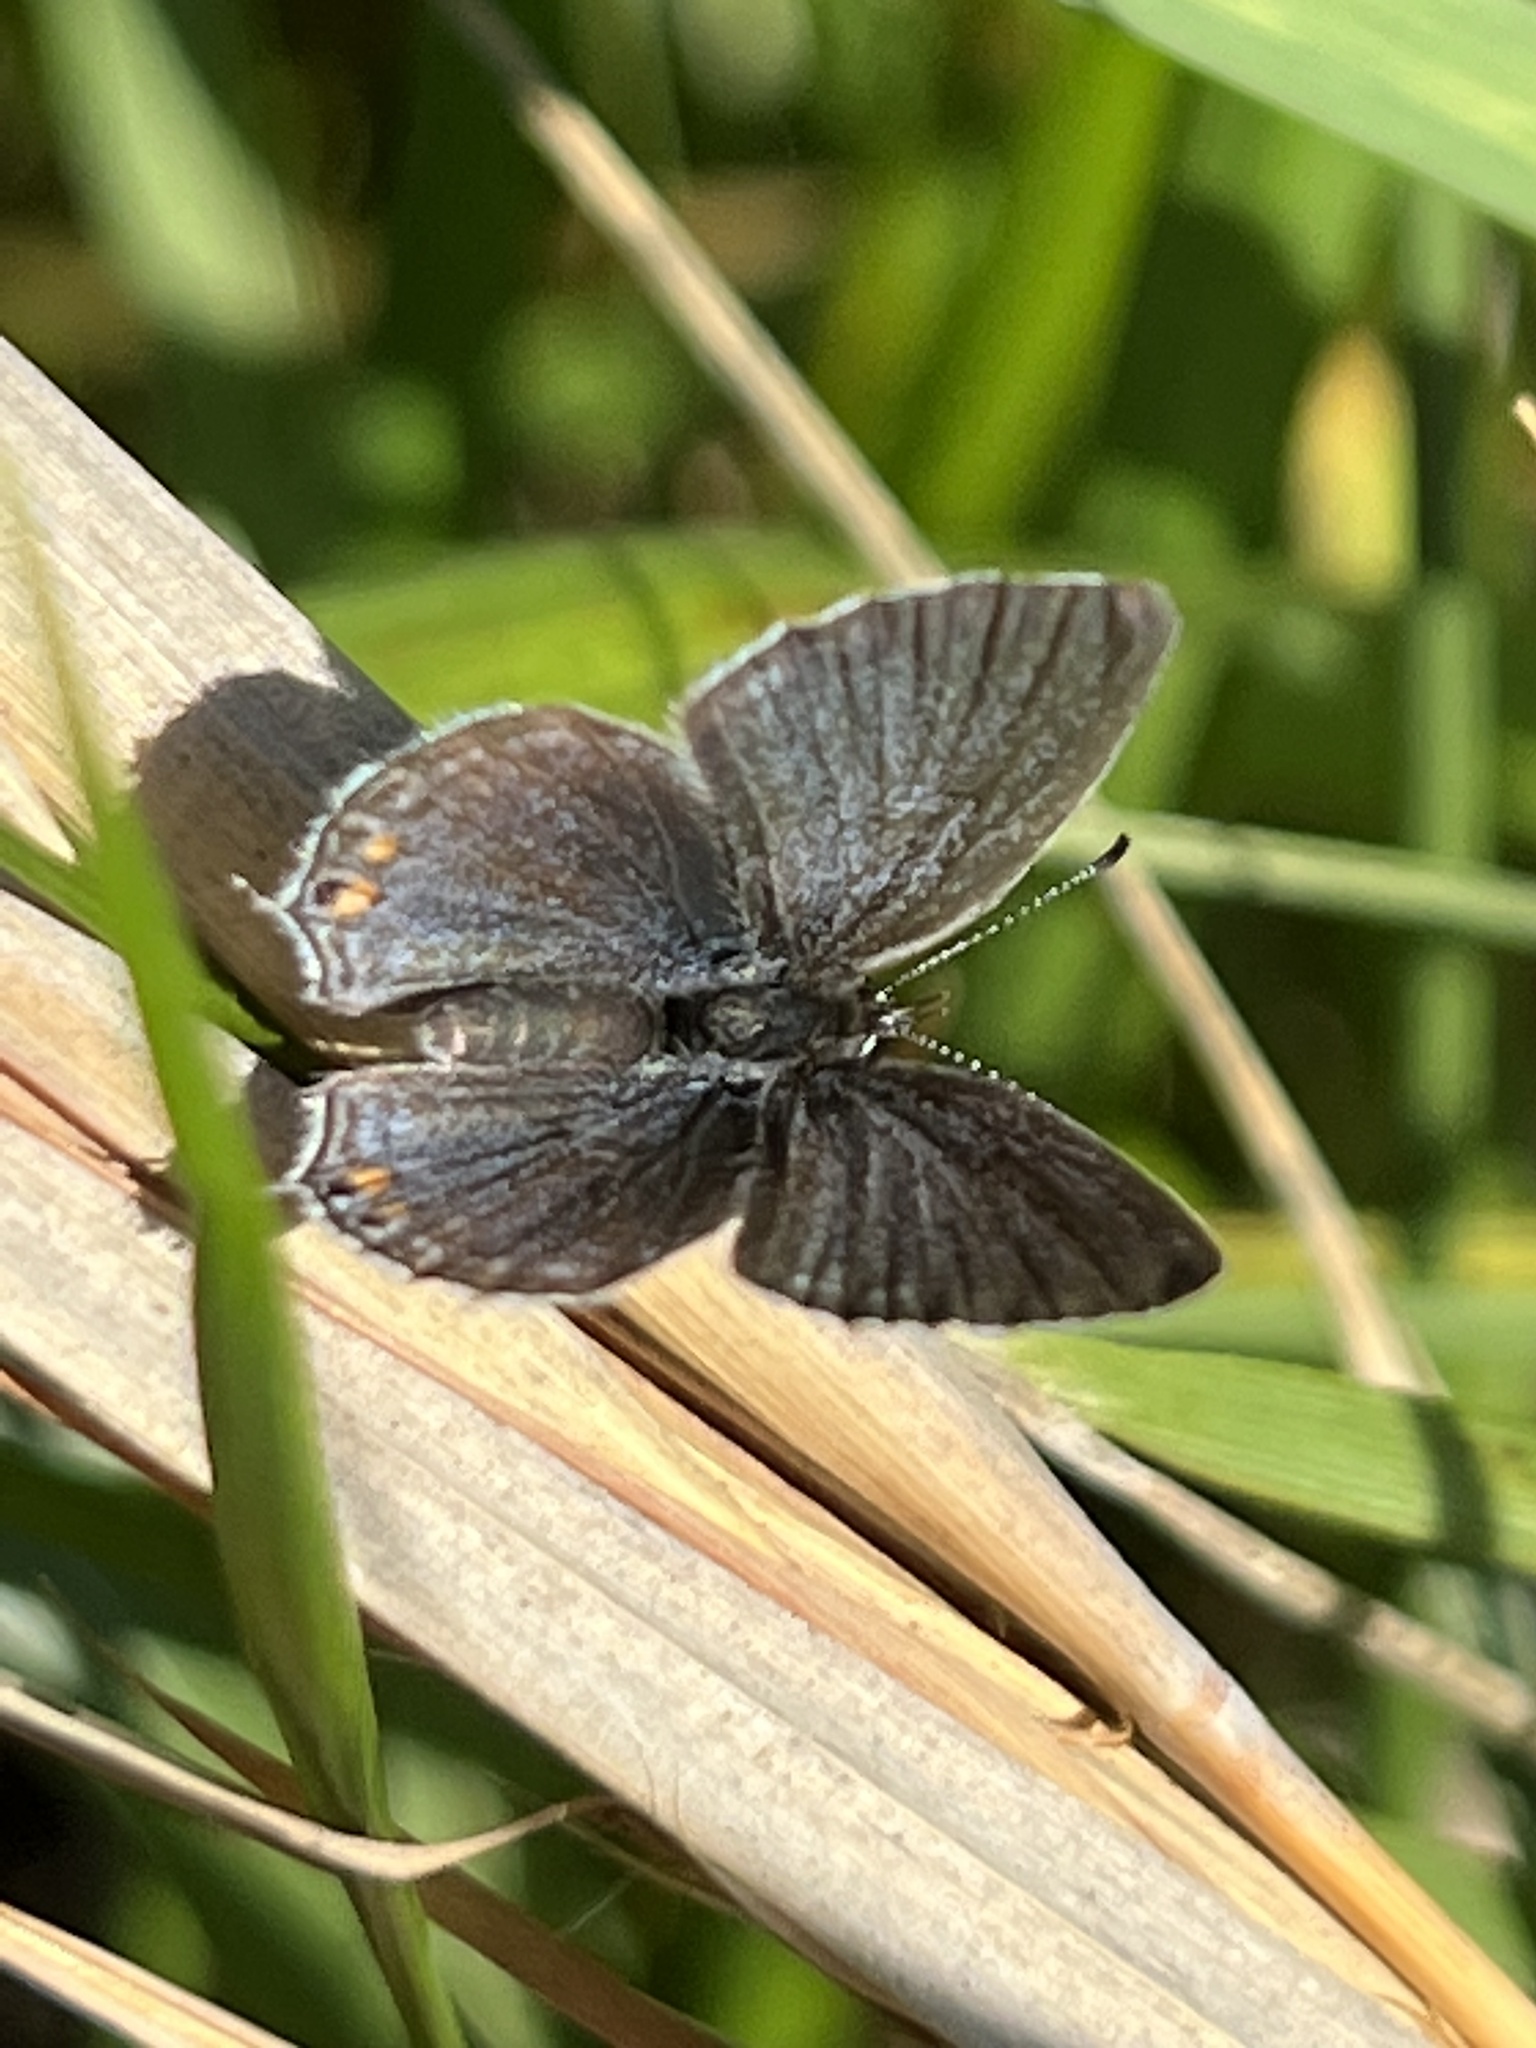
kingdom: Animalia
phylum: Arthropoda
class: Insecta
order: Lepidoptera
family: Lycaenidae
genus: Elkalyce
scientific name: Elkalyce comyntas
